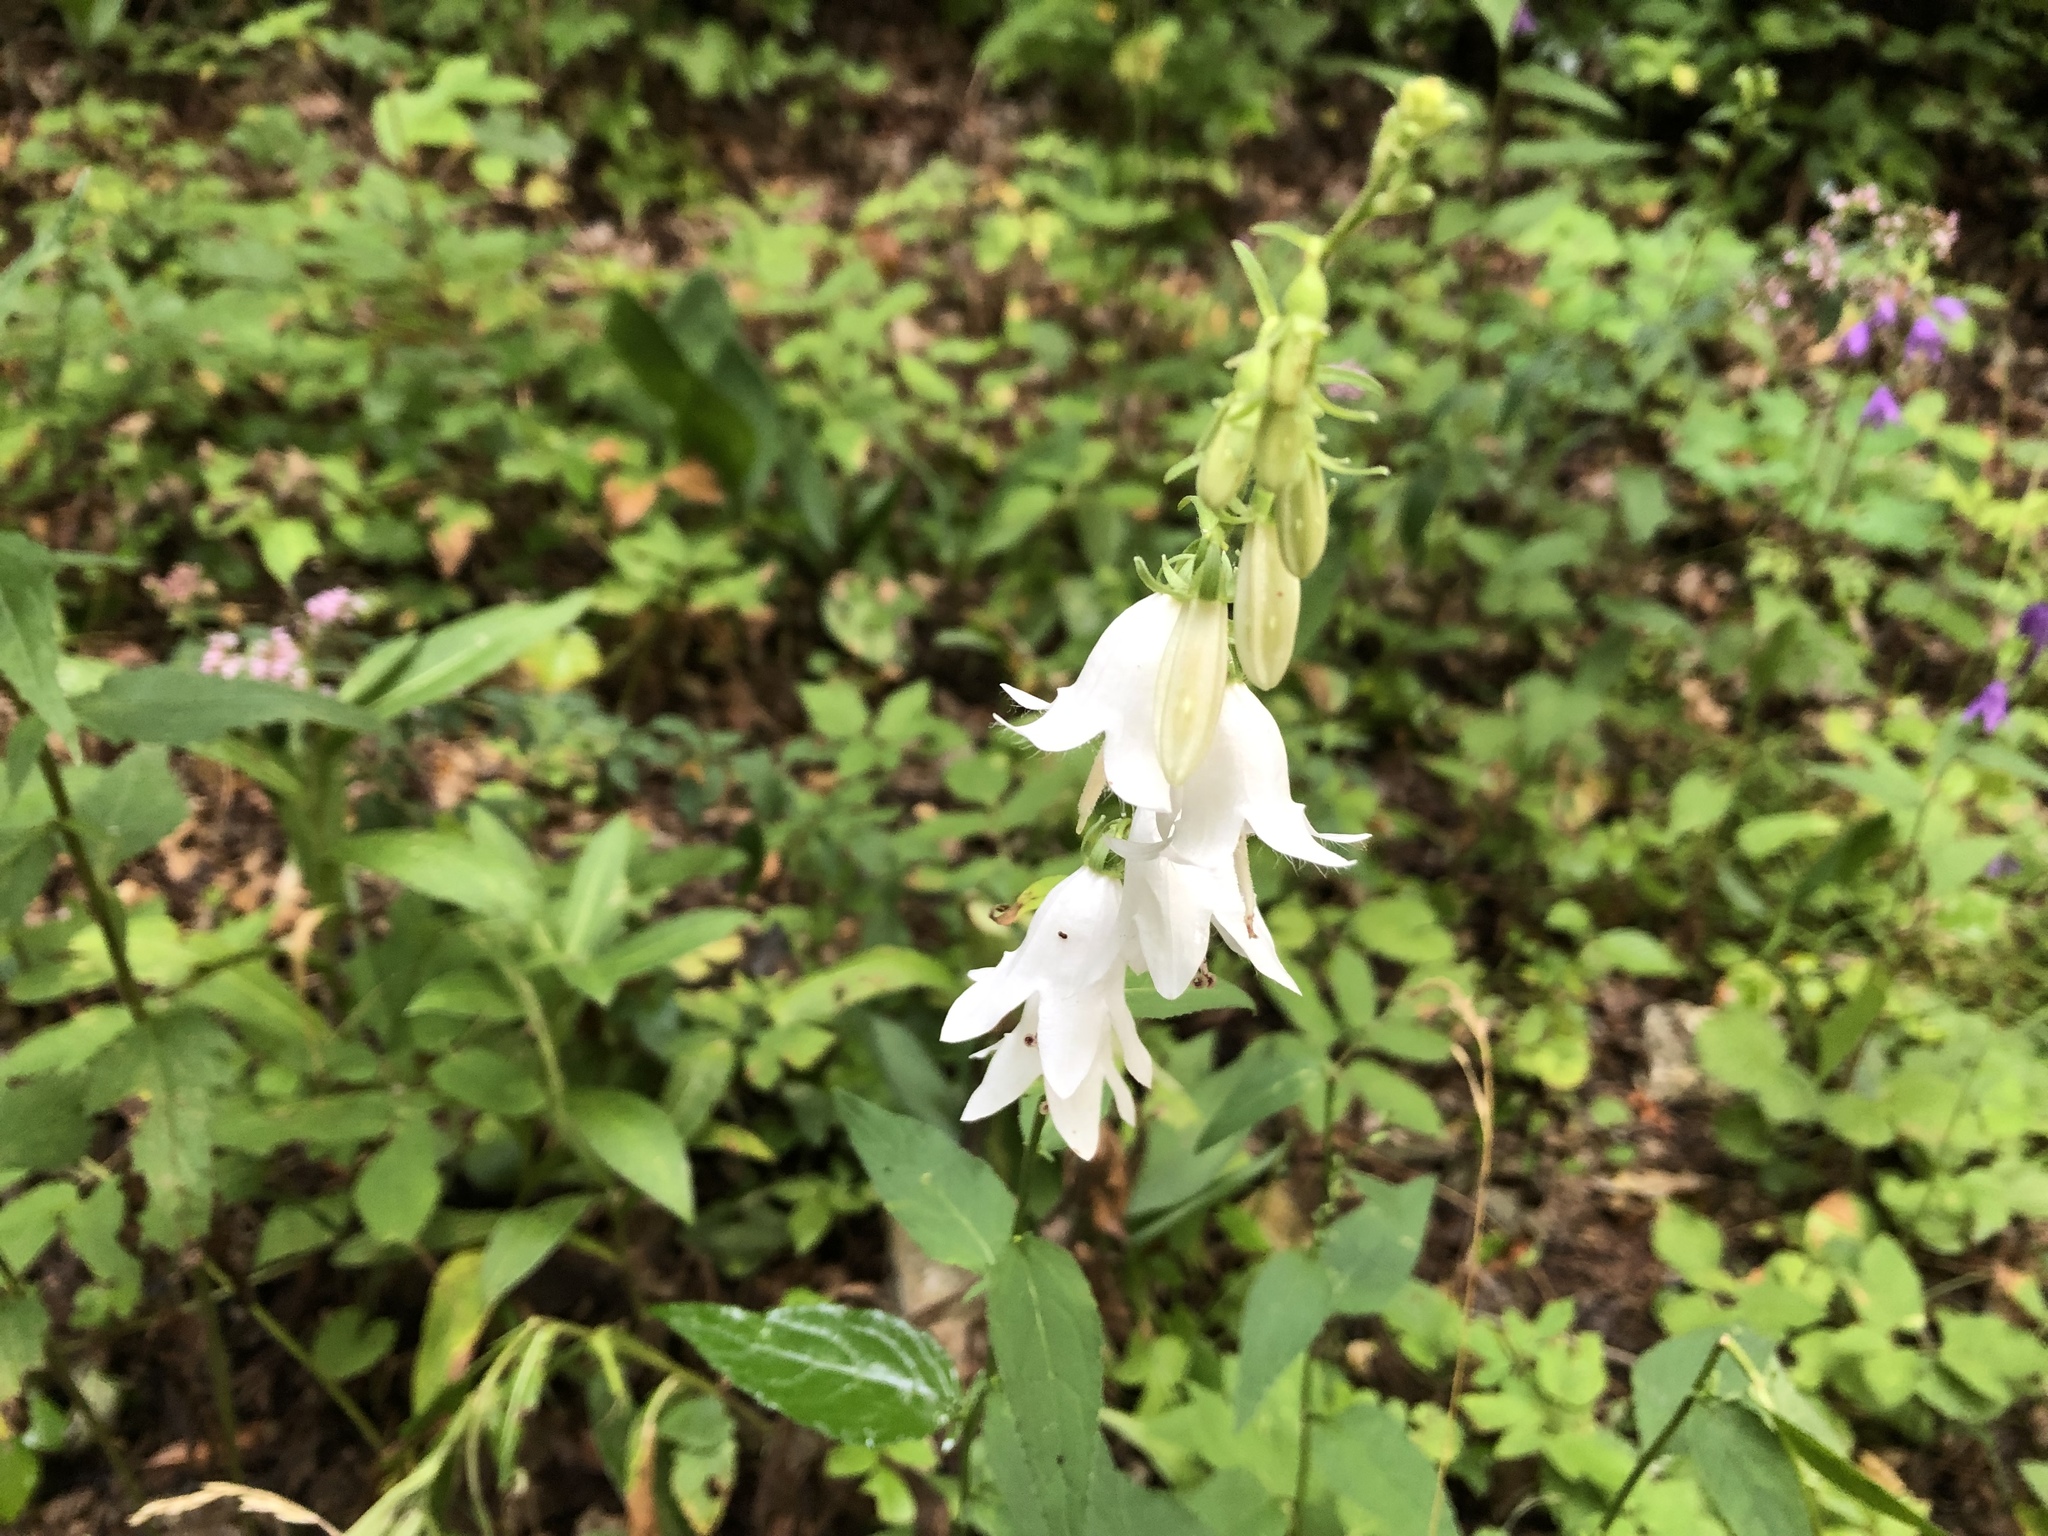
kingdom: Plantae
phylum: Tracheophyta
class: Magnoliopsida
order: Asterales
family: Campanulaceae
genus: Campanula
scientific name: Campanula rapunculoides
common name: Creeping bellflower
